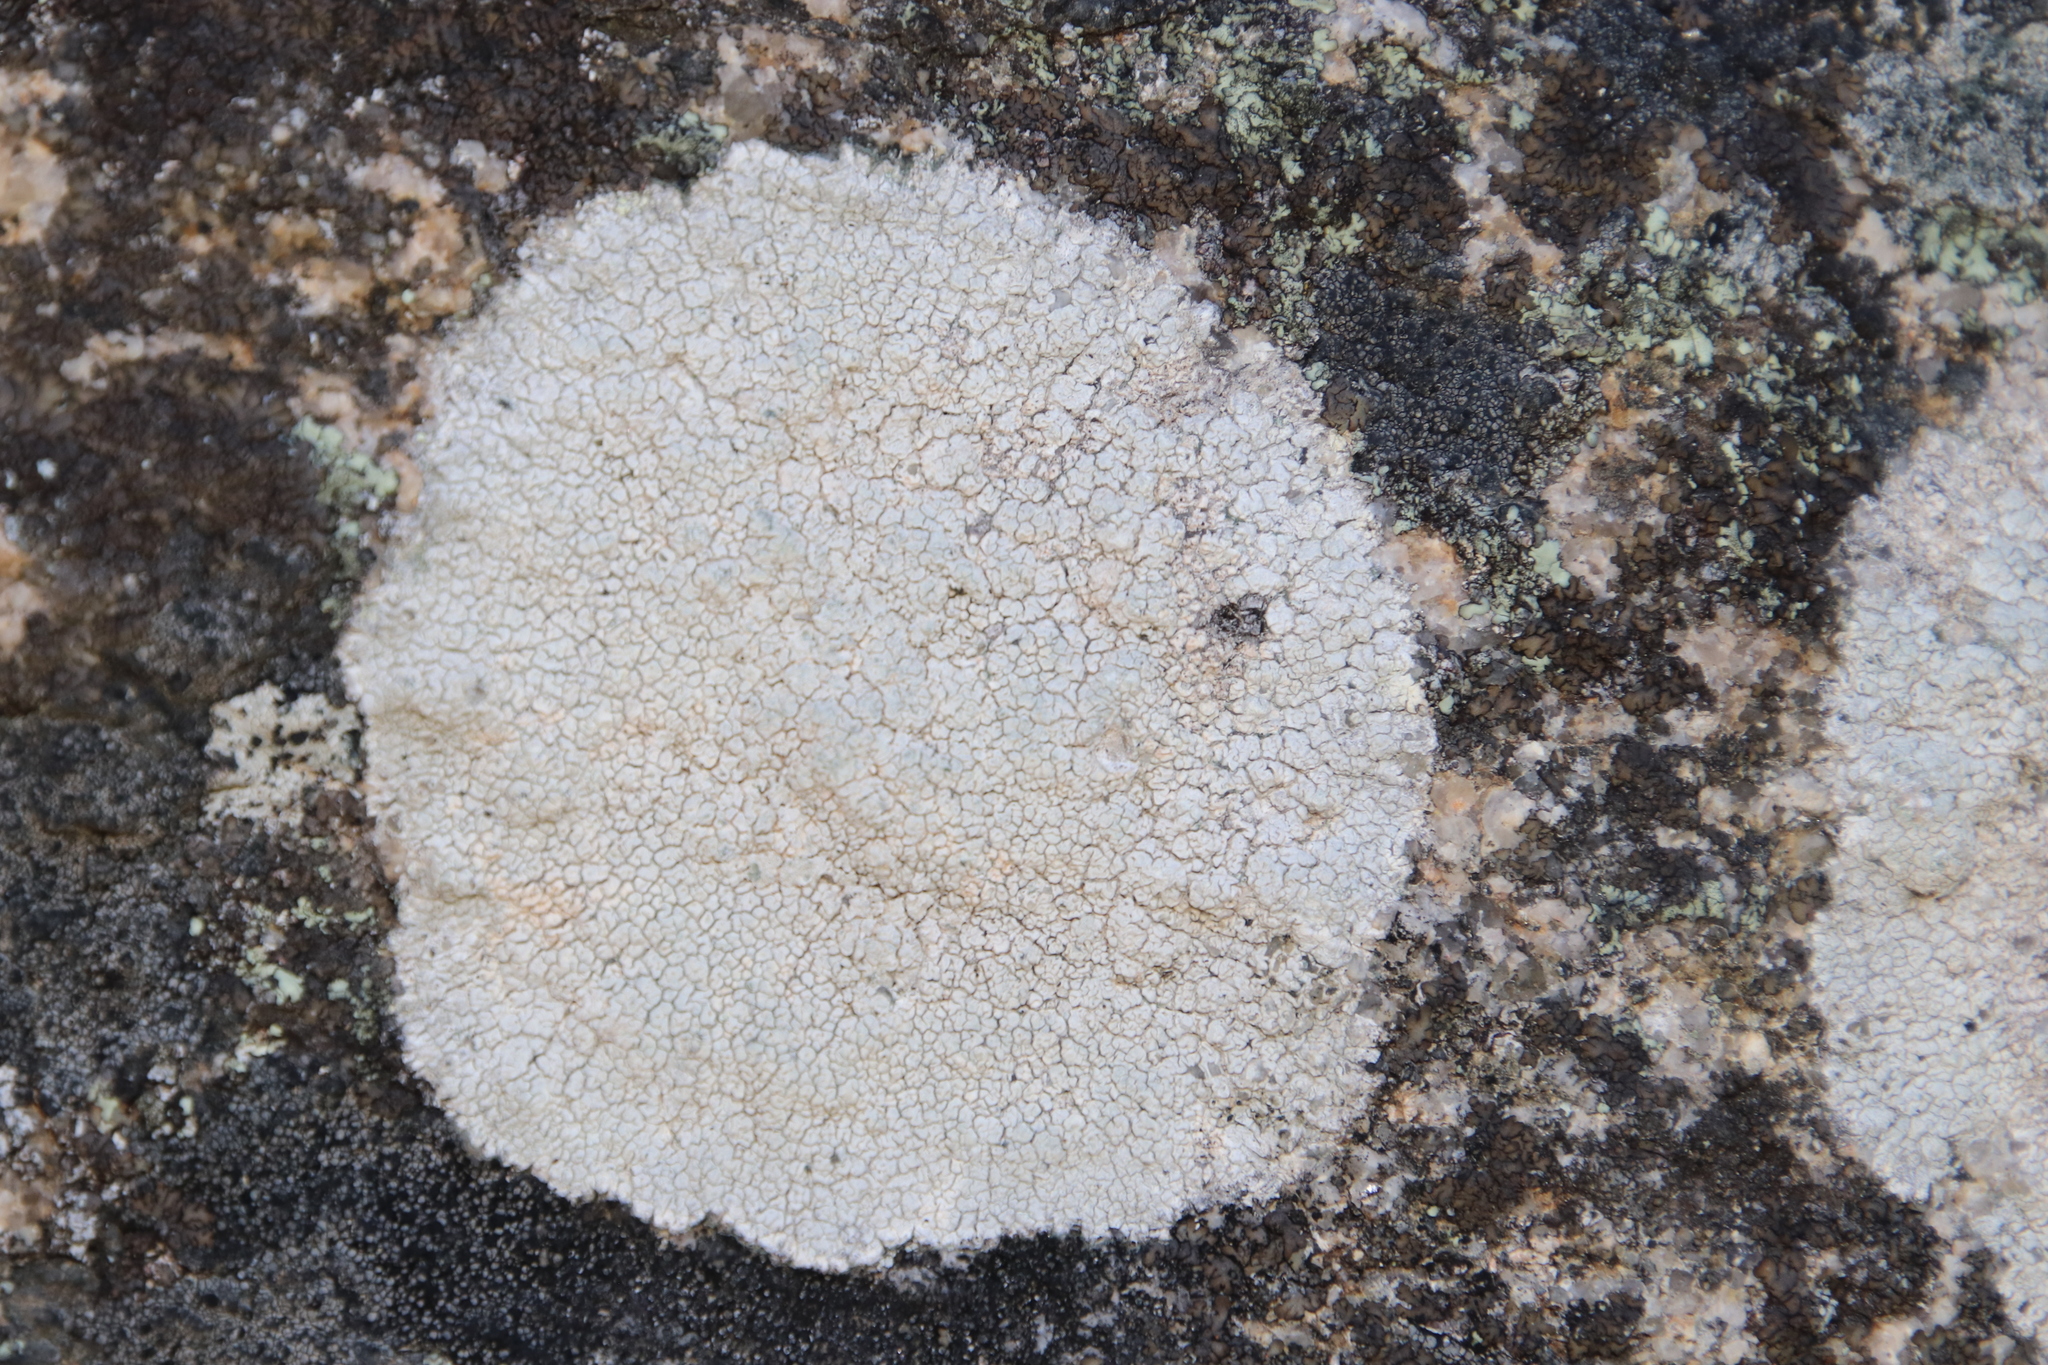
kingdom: Fungi
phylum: Ascomycota
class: Lecanoromycetes
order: Pertusariales
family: Ochrolechiaceae
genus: Ochrolechia
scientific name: Ochrolechia parella
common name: Crab's eye lichen
